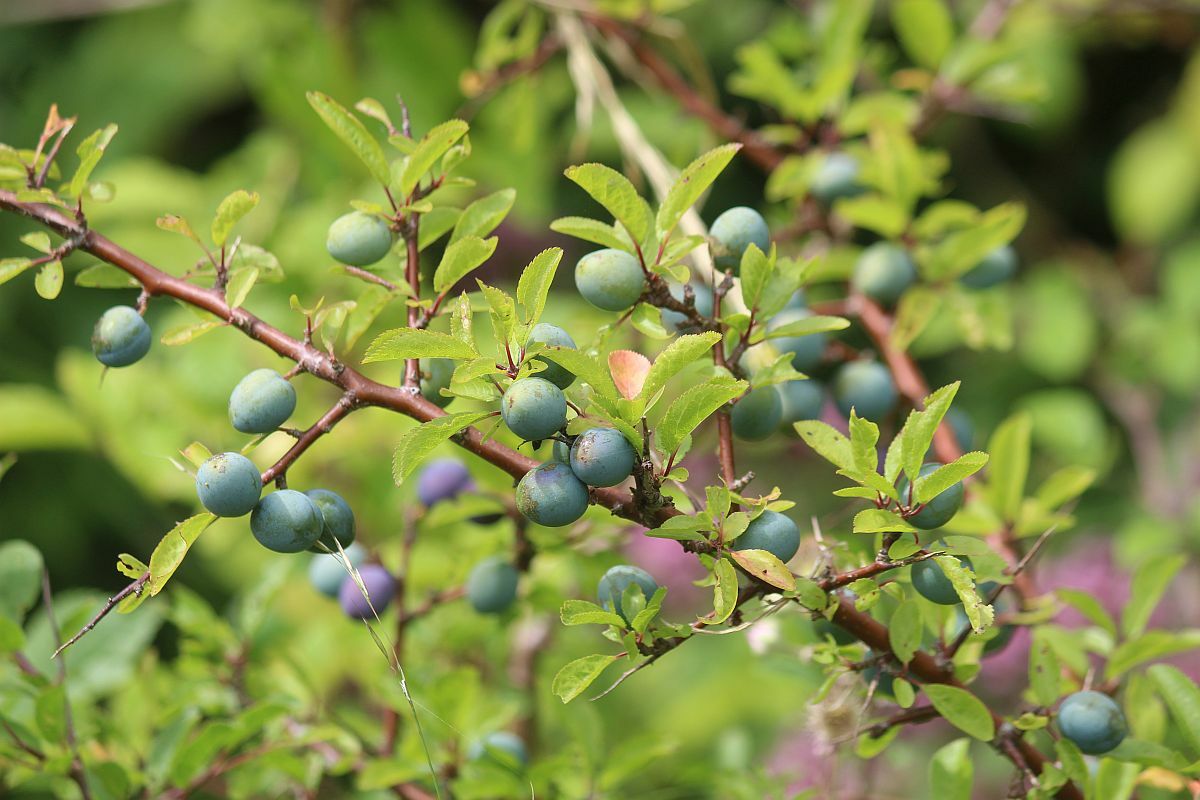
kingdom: Plantae
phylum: Tracheophyta
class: Magnoliopsida
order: Rosales
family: Rosaceae
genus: Prunus
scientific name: Prunus spinosa
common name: Blackthorn
